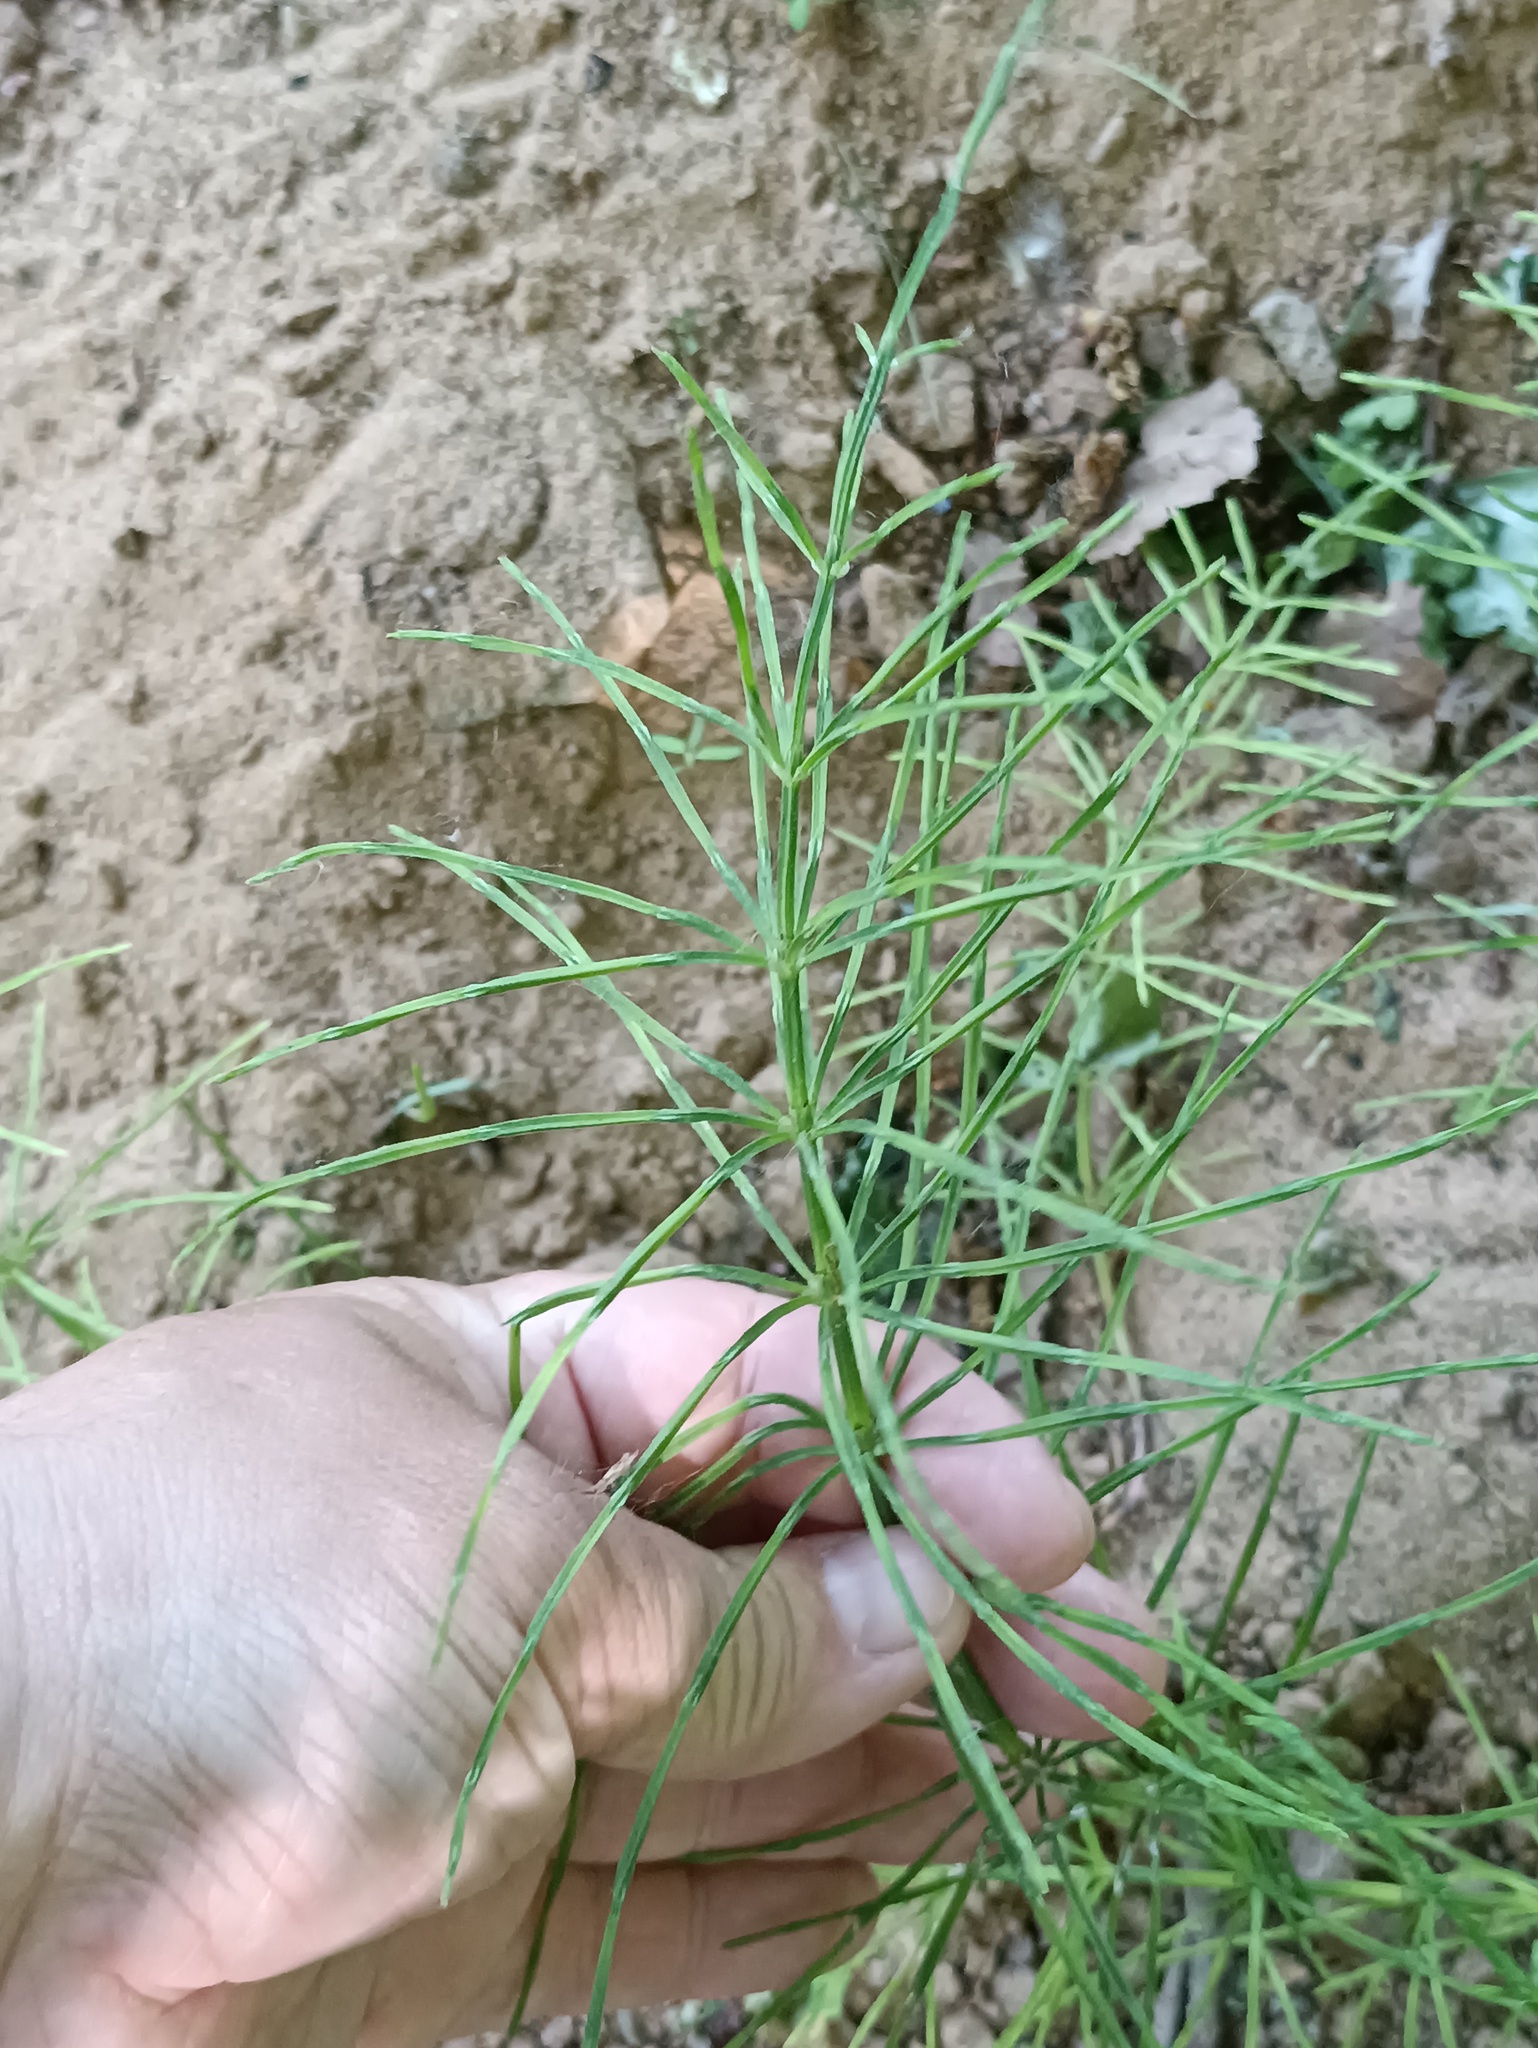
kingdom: Plantae
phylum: Tracheophyta
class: Polypodiopsida
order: Equisetales
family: Equisetaceae
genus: Equisetum
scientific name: Equisetum arvense
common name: Field horsetail
